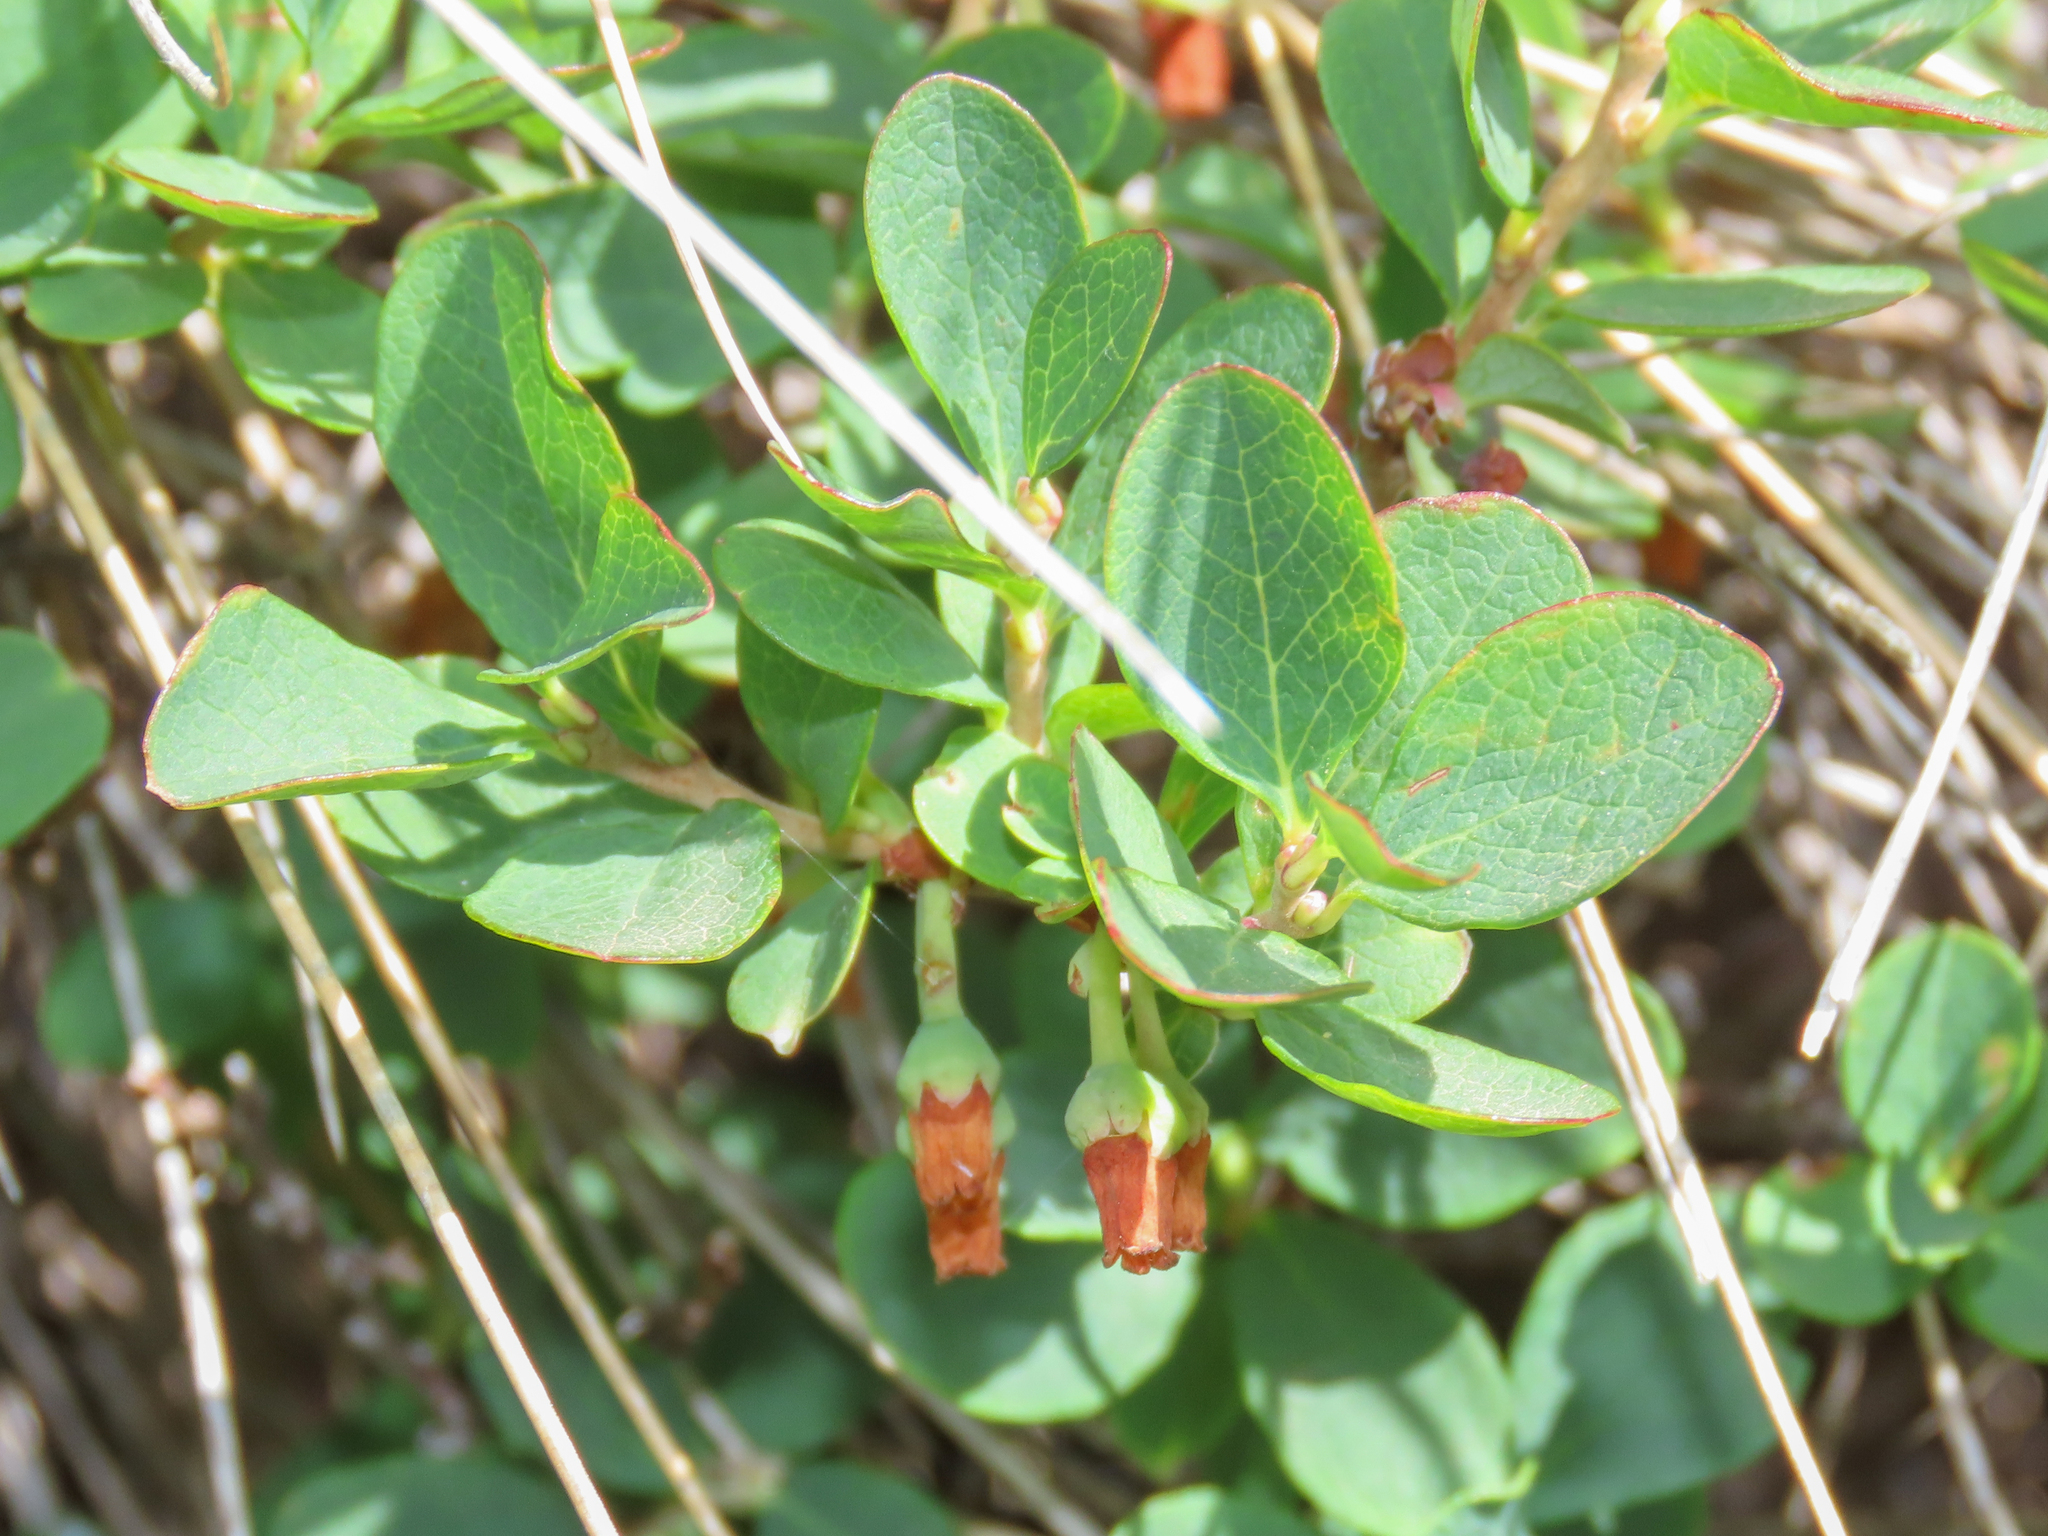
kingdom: Plantae
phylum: Tracheophyta
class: Magnoliopsida
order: Ericales
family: Ericaceae
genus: Vaccinium
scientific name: Vaccinium uliginosum
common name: Bog bilberry
